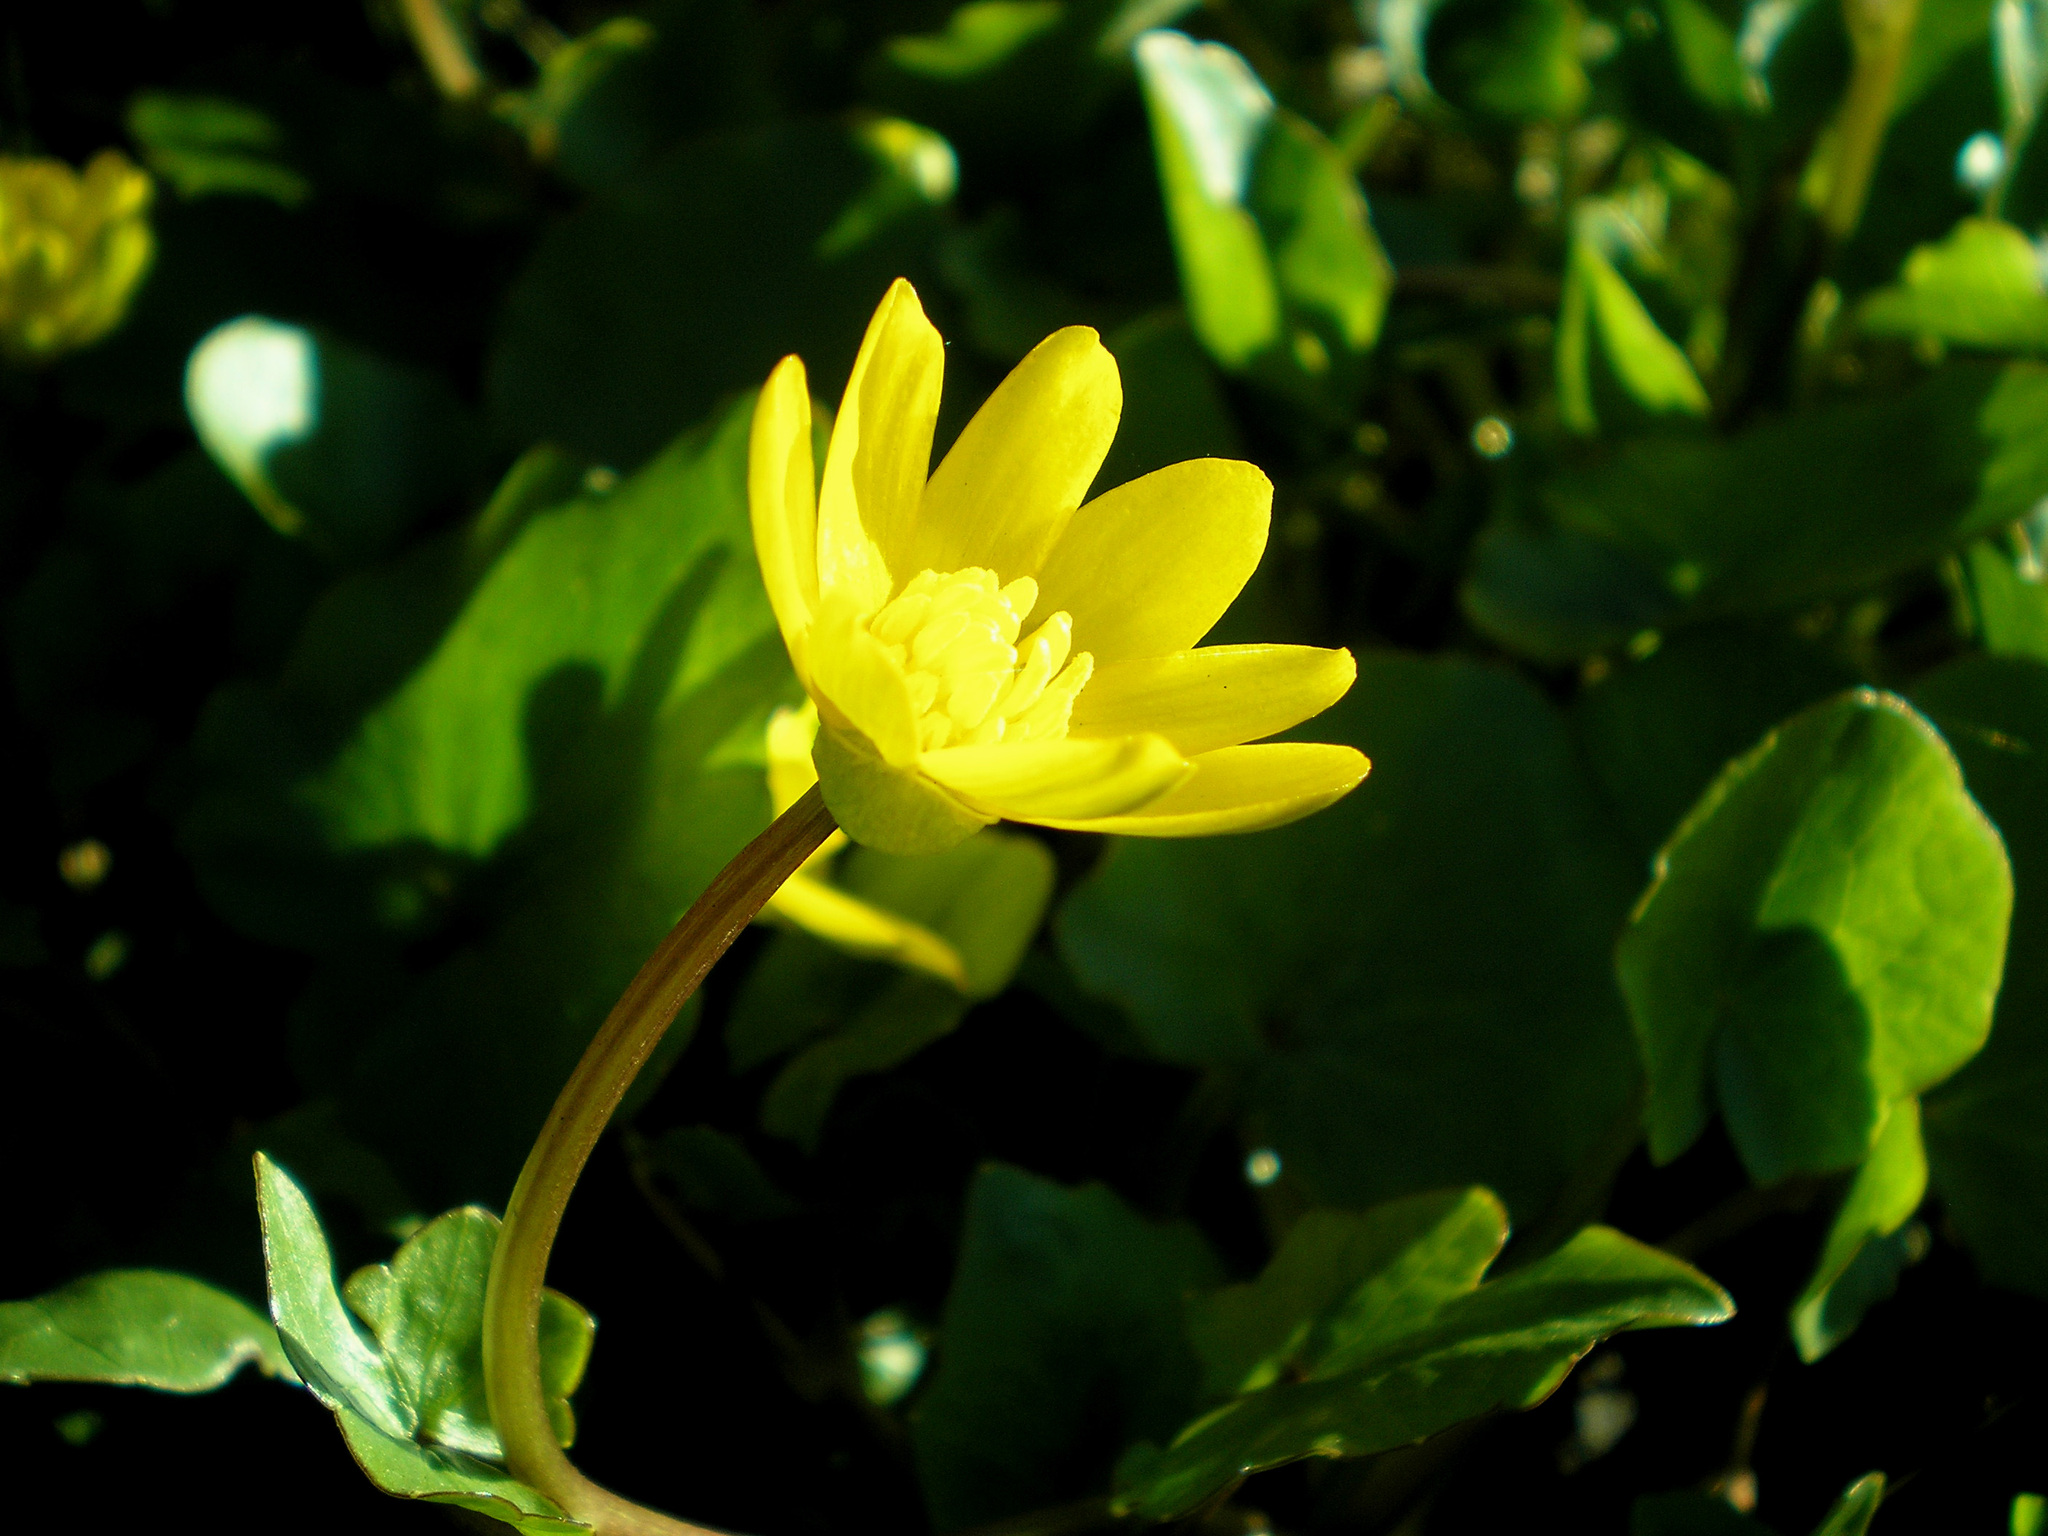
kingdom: Plantae
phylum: Tracheophyta
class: Magnoliopsida
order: Ranunculales
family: Ranunculaceae
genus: Ficaria
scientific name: Ficaria verna
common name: Lesser celandine
